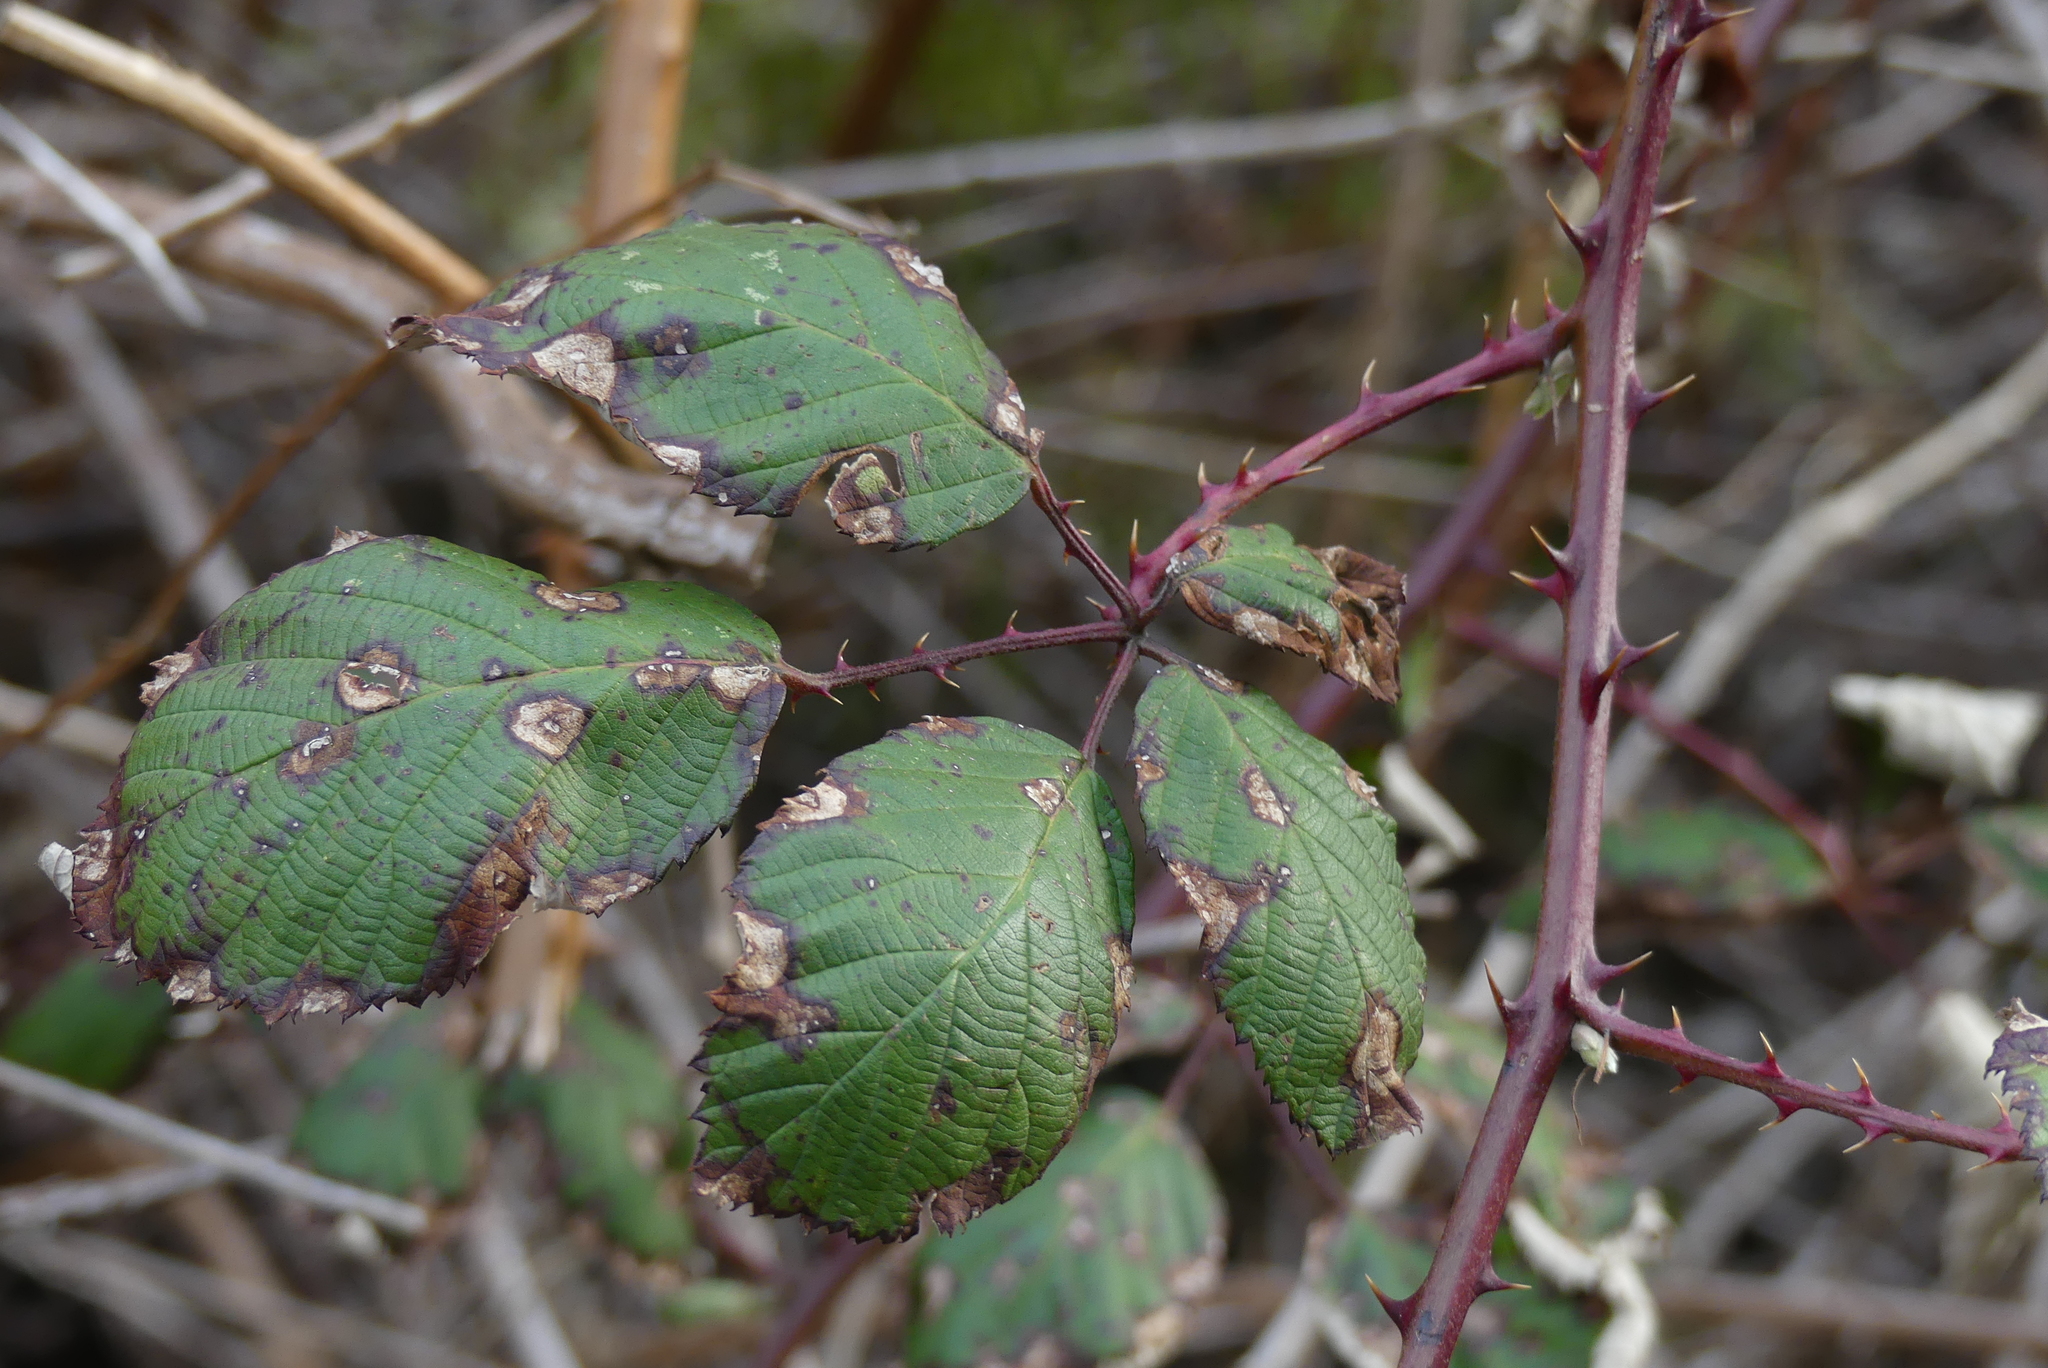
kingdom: Plantae
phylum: Tracheophyta
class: Magnoliopsida
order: Rosales
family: Rosaceae
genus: Rubus
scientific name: Rubus bifrons
